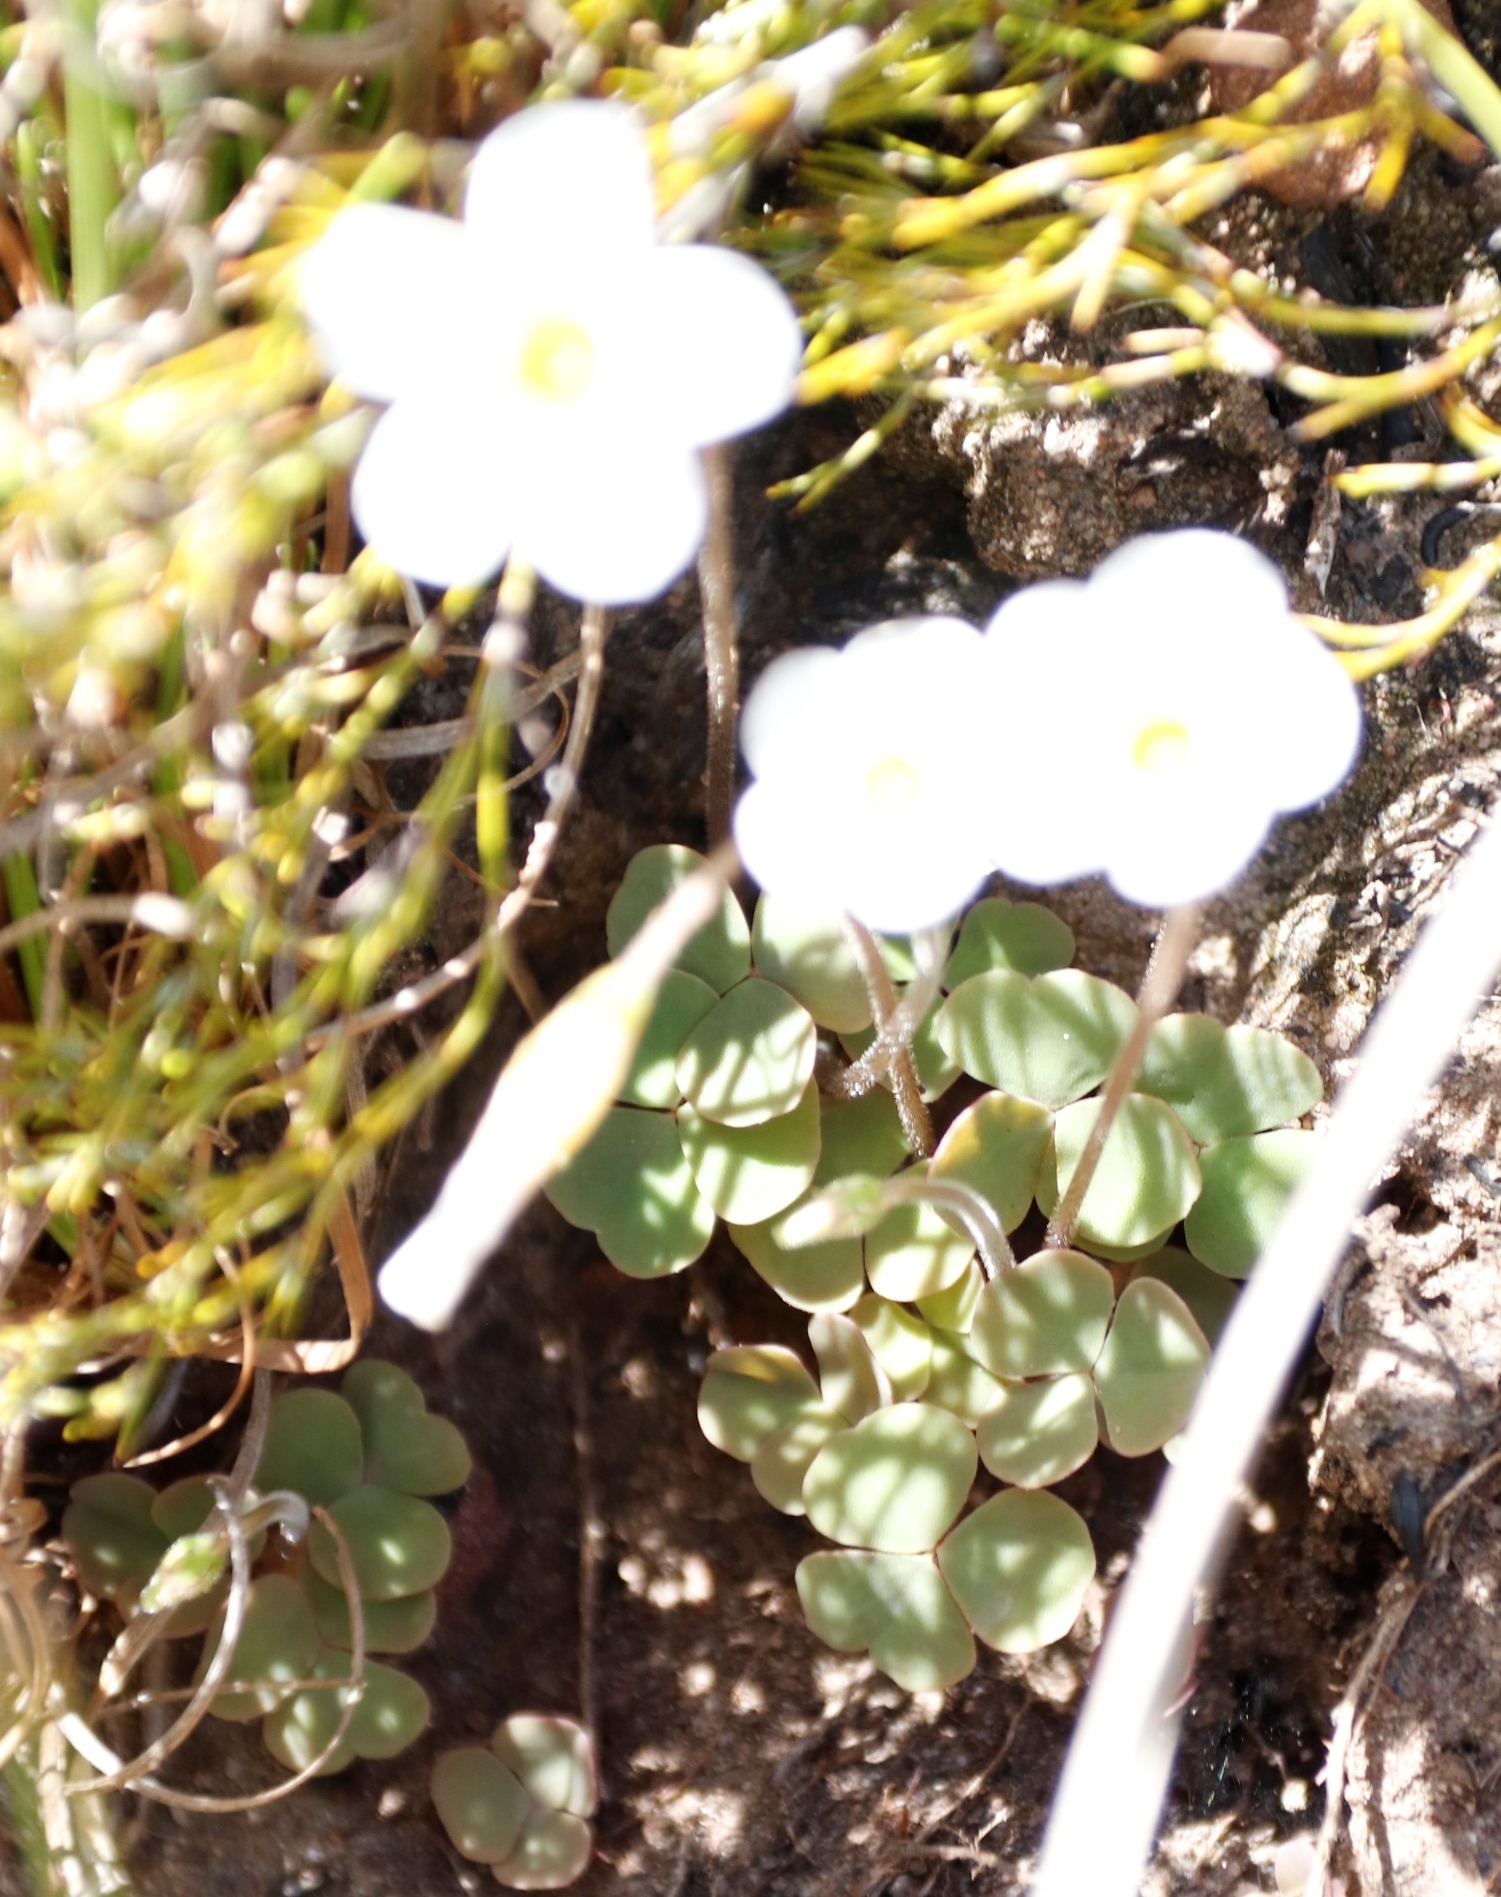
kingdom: Plantae
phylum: Tracheophyta
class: Magnoliopsida
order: Oxalidales
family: Oxalidaceae
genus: Oxalis
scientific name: Oxalis punctata
